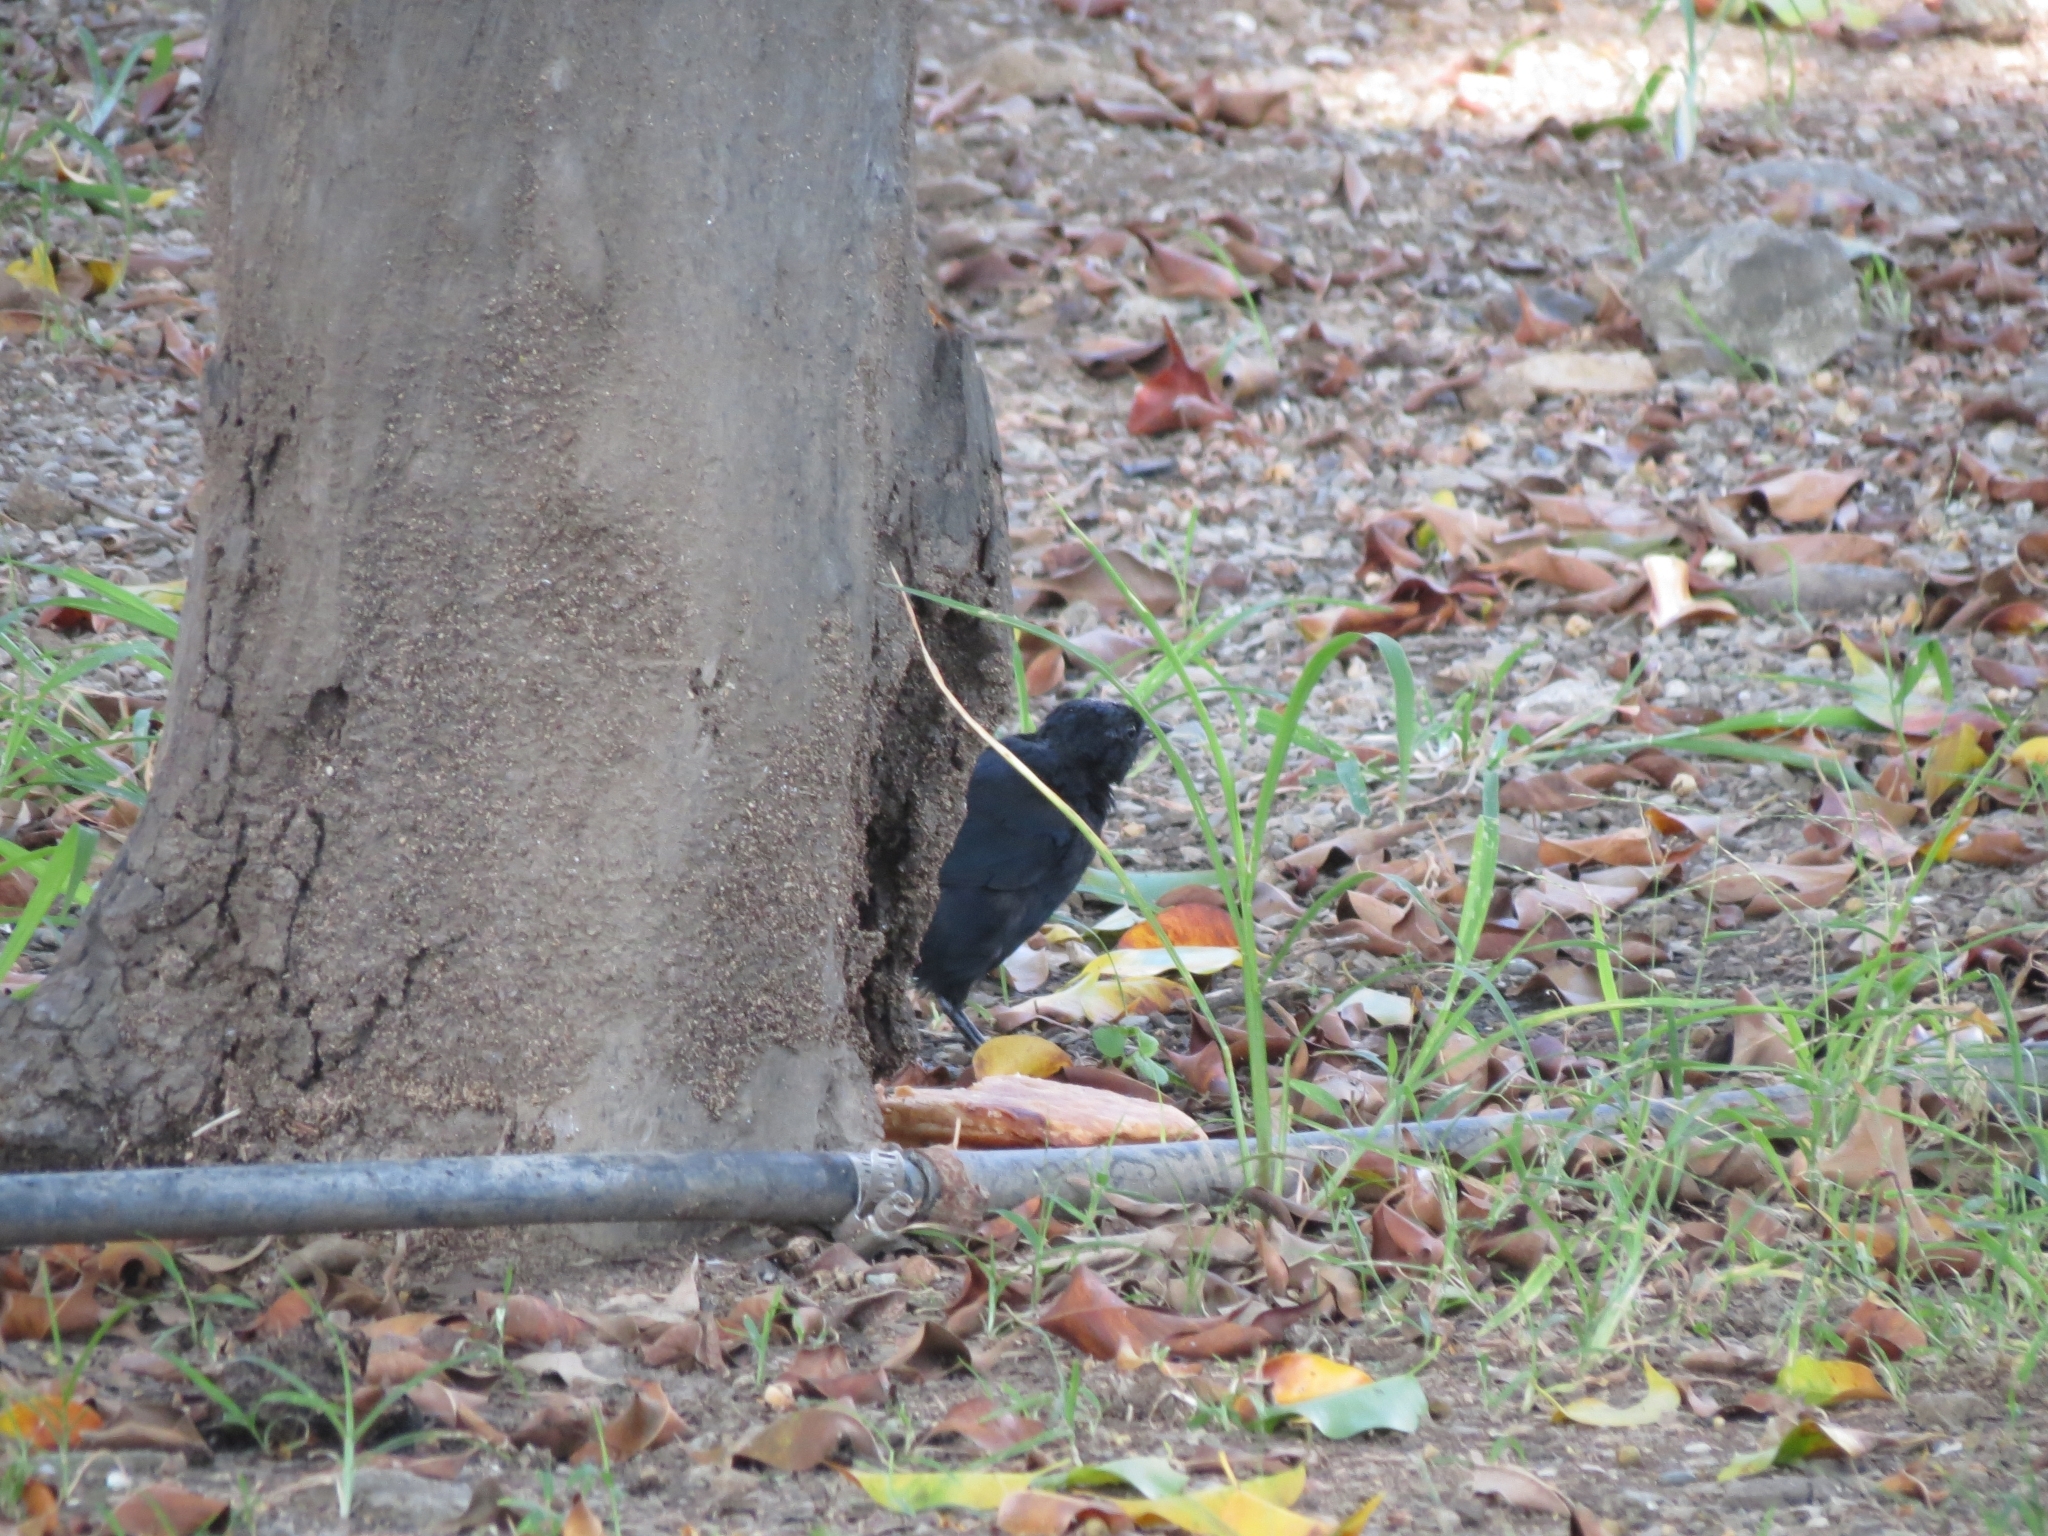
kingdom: Animalia
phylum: Chordata
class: Aves
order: Passeriformes
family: Icteridae
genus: Dives
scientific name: Dives warczewiczi
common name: Scrub blackbird
